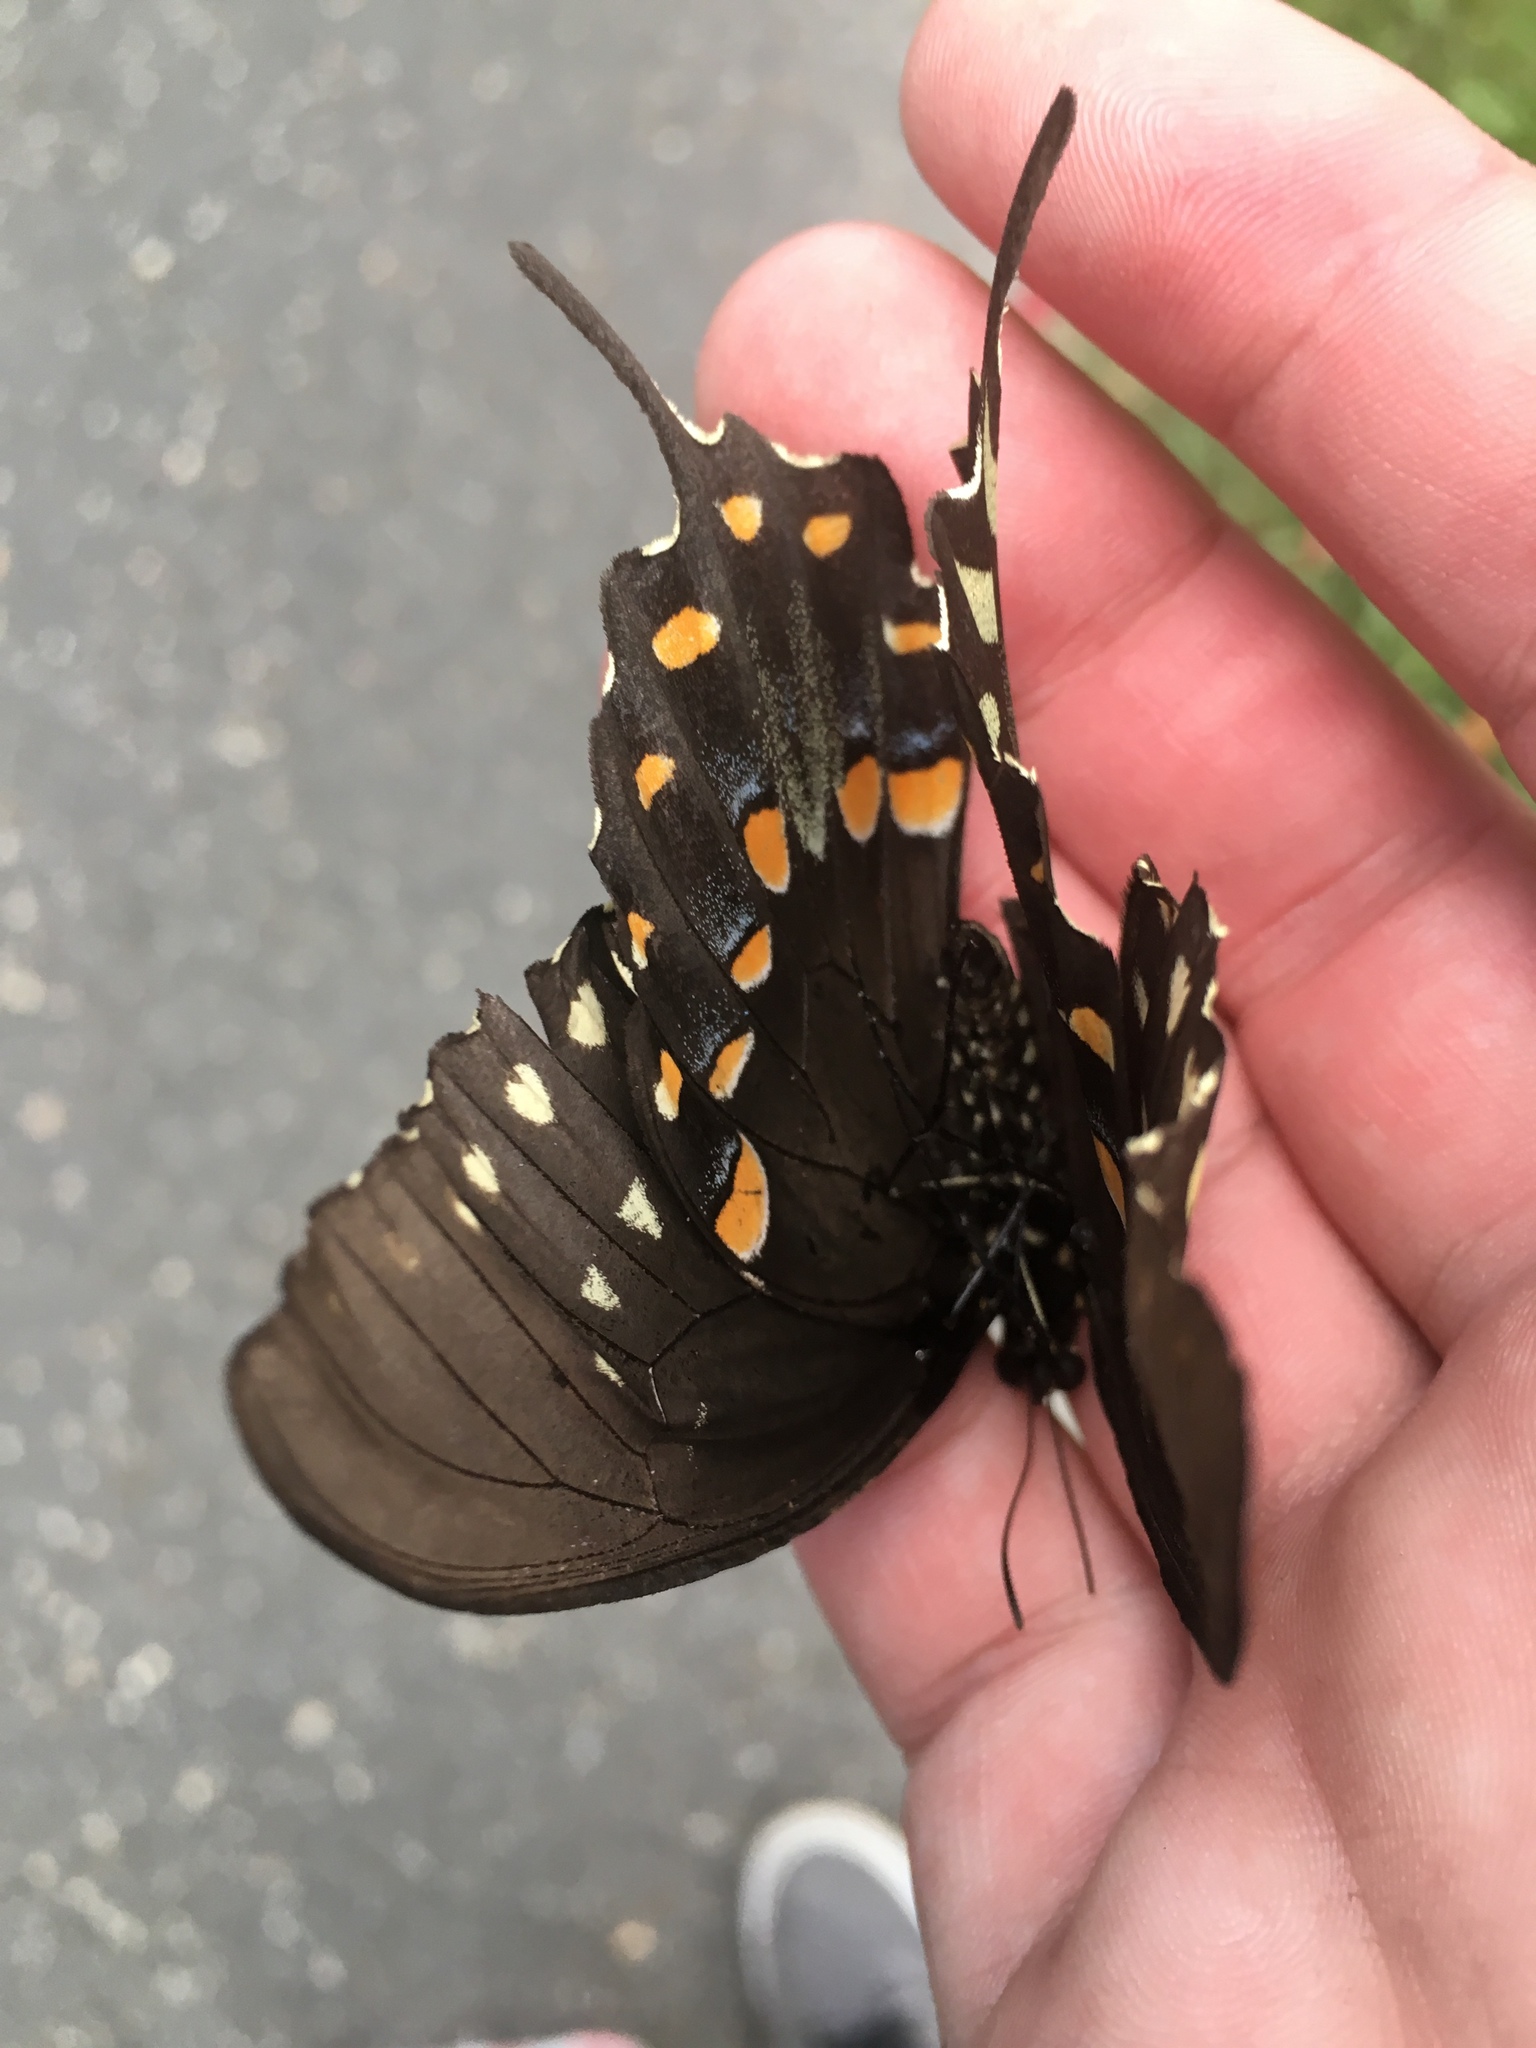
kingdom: Animalia
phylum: Arthropoda
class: Insecta
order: Lepidoptera
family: Papilionidae
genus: Papilio
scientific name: Papilio troilus
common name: Spicebush swallowtail
